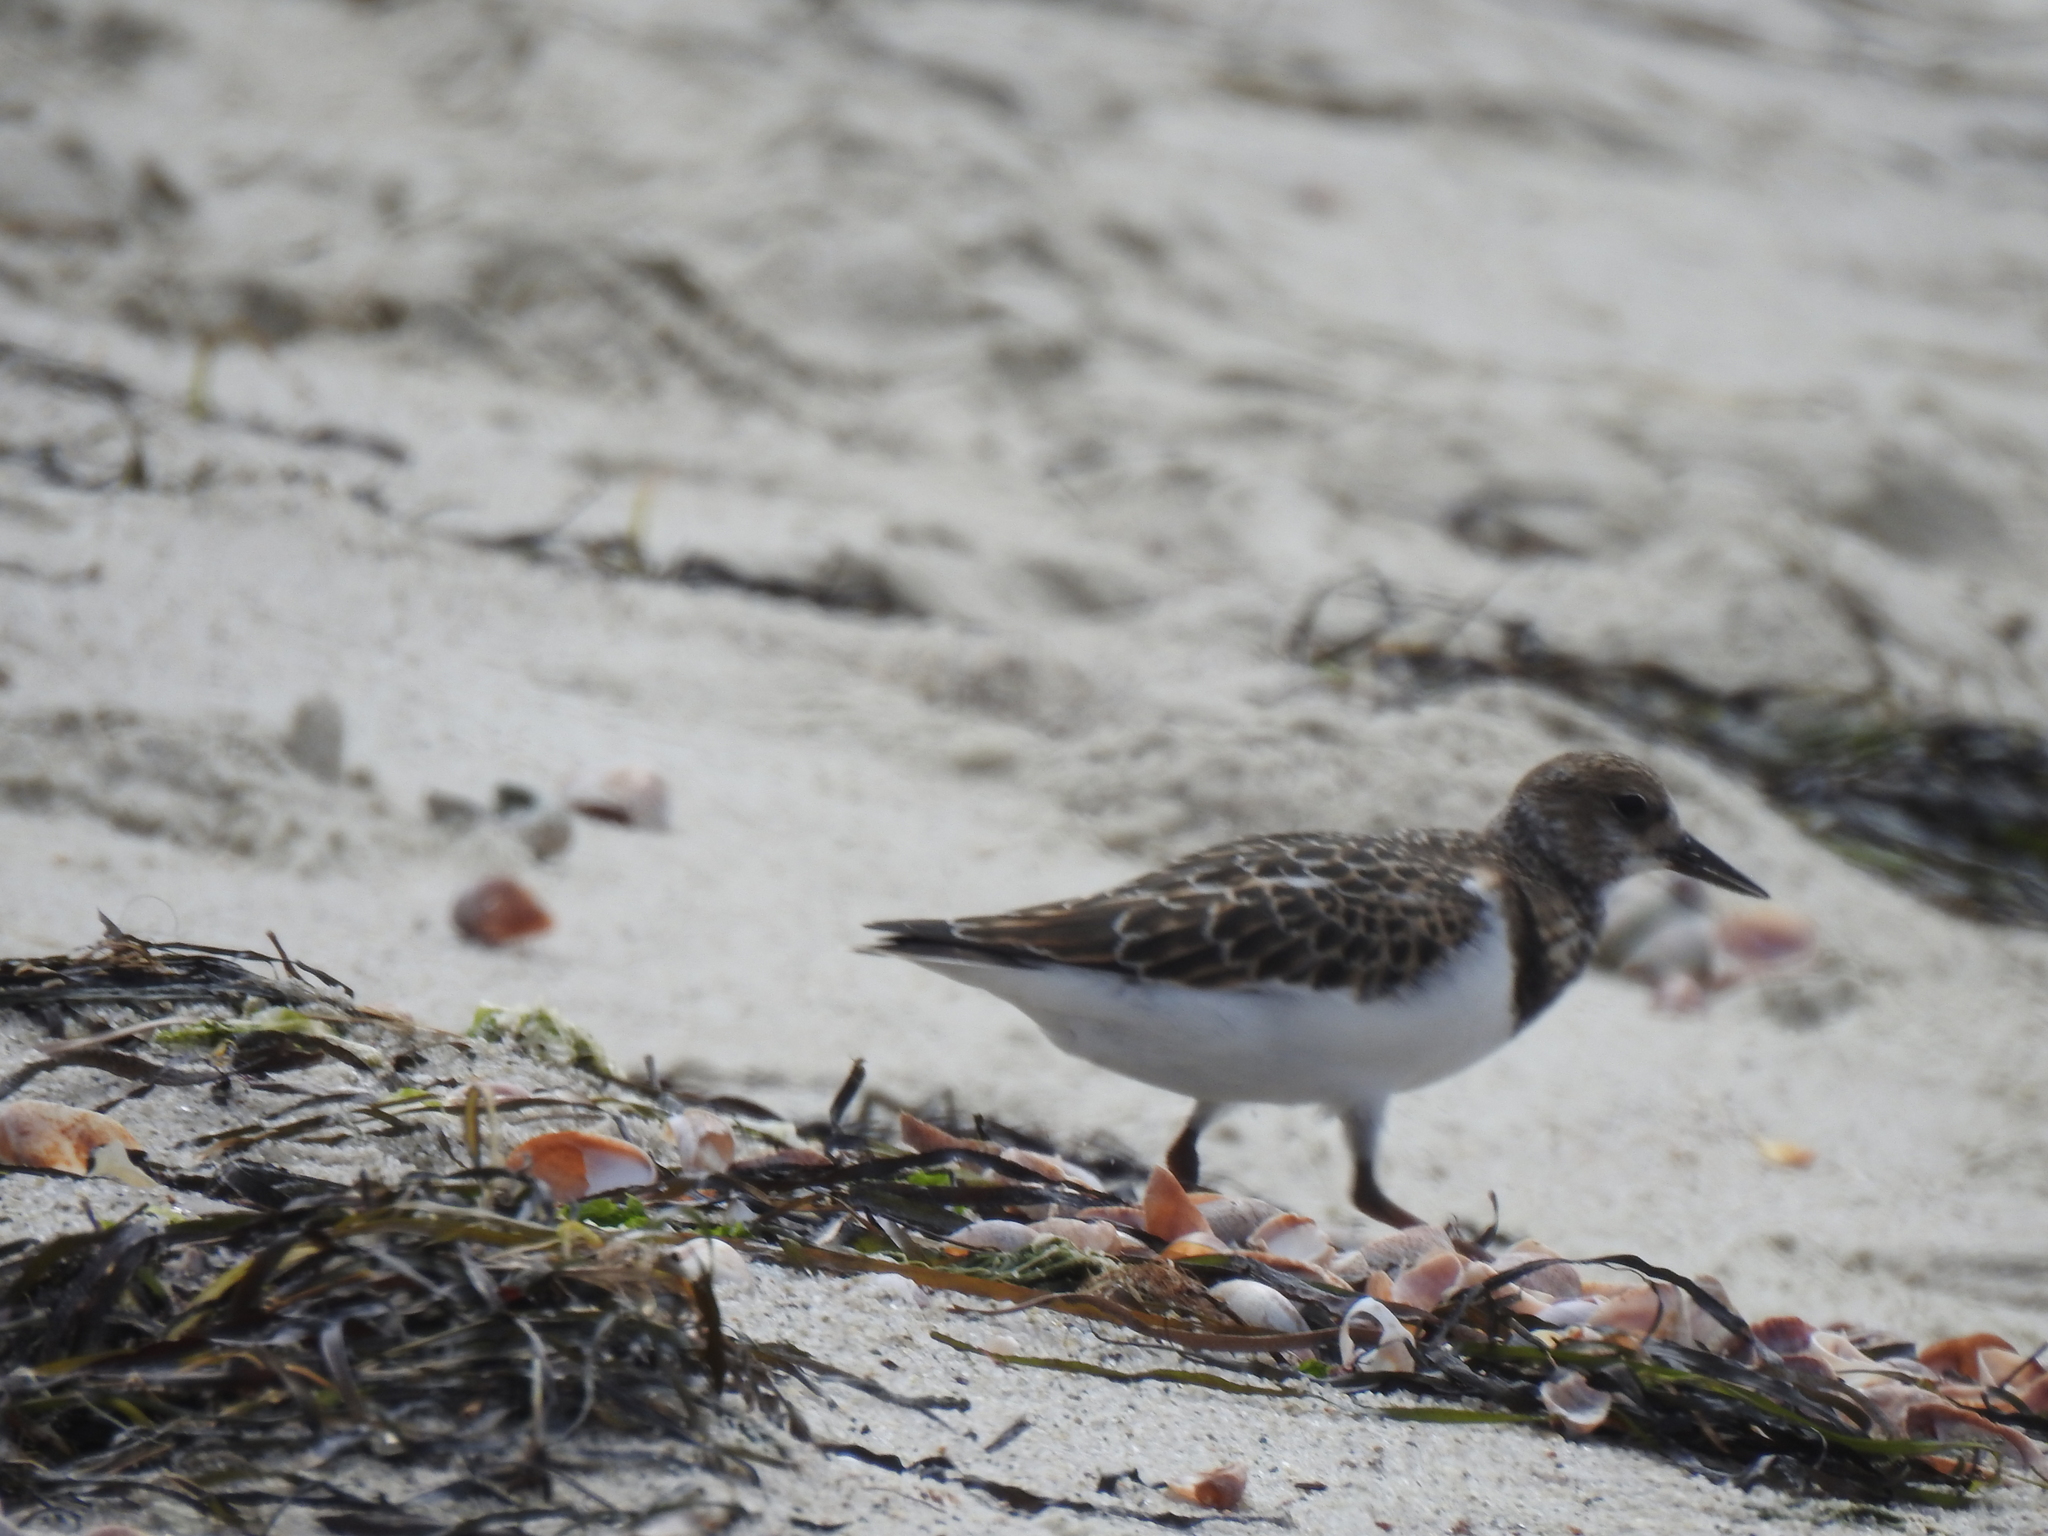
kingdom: Animalia
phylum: Chordata
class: Aves
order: Charadriiformes
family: Scolopacidae
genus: Arenaria
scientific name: Arenaria interpres
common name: Ruddy turnstone
